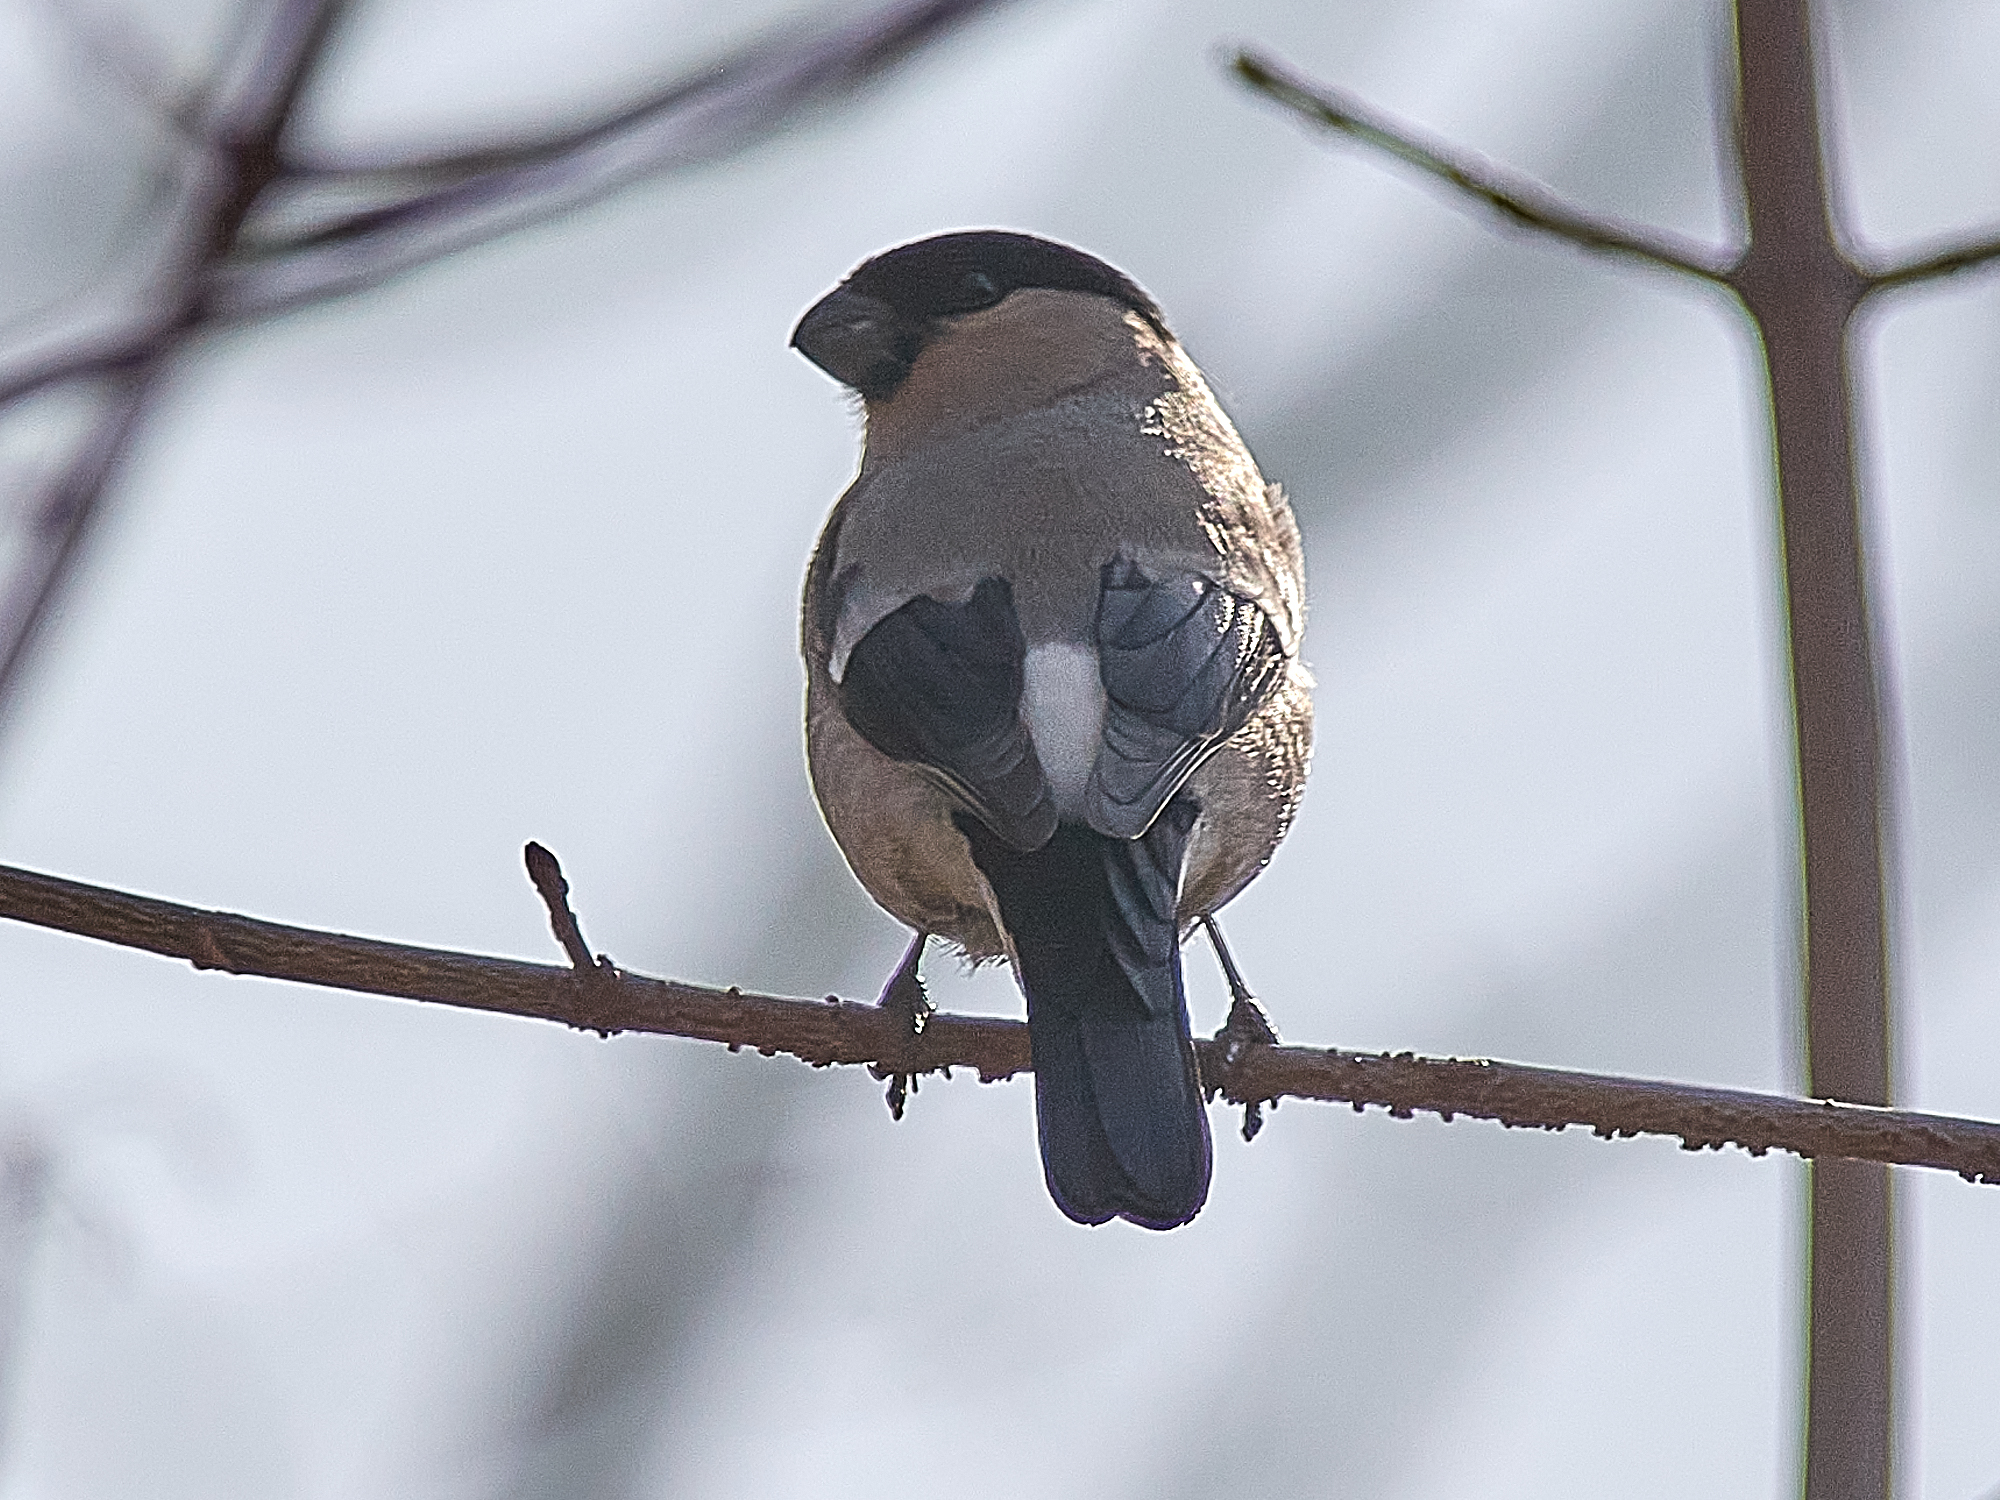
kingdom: Animalia
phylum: Chordata
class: Aves
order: Passeriformes
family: Fringillidae
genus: Pyrrhula
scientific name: Pyrrhula pyrrhula
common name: Eurasian bullfinch
